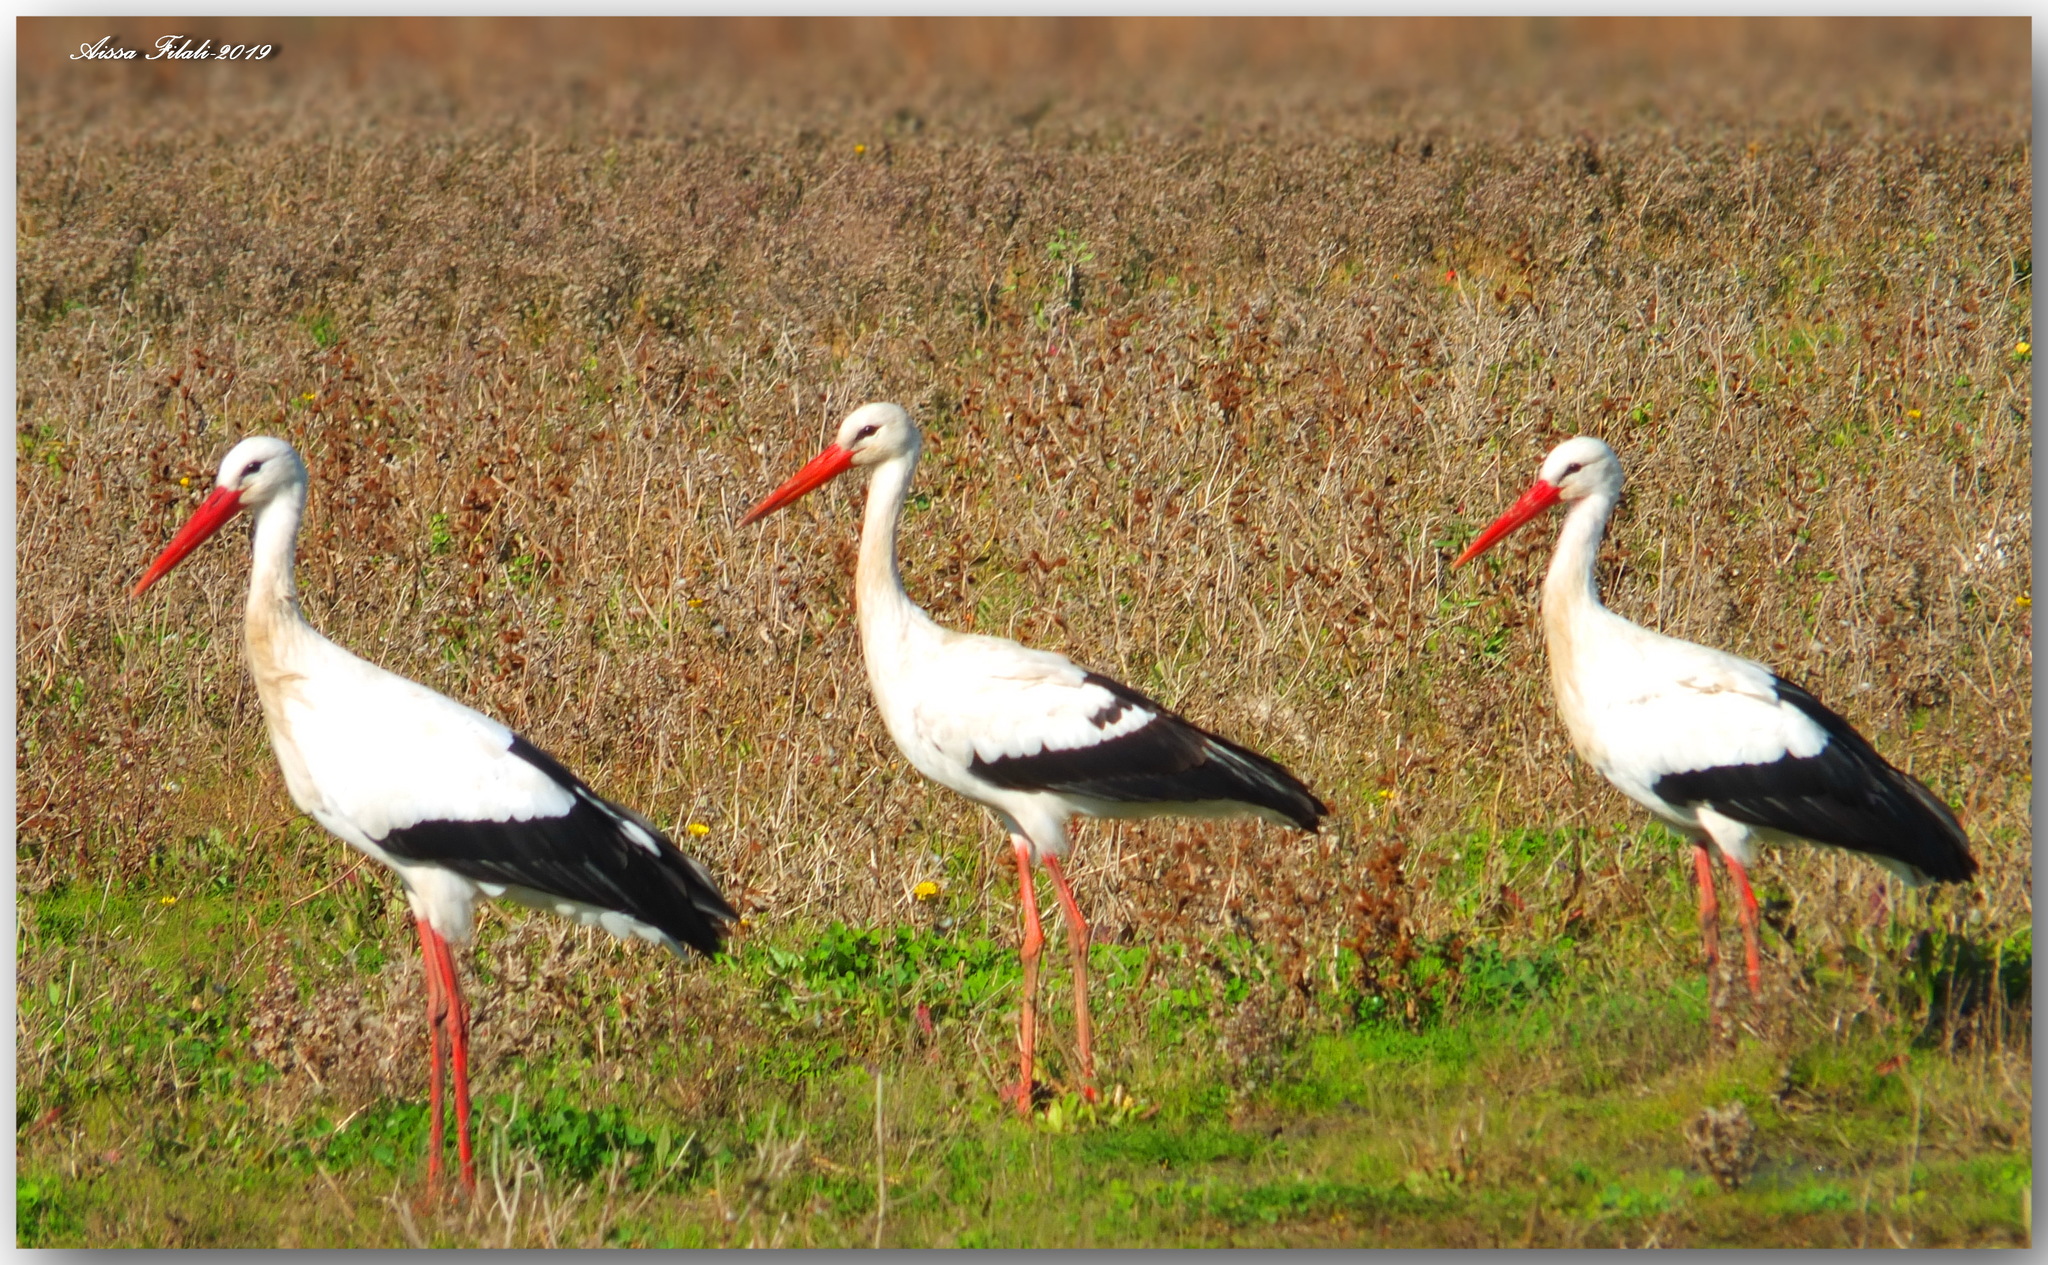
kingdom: Animalia
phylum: Chordata
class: Aves
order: Ciconiiformes
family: Ciconiidae
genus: Ciconia
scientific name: Ciconia ciconia
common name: White stork
